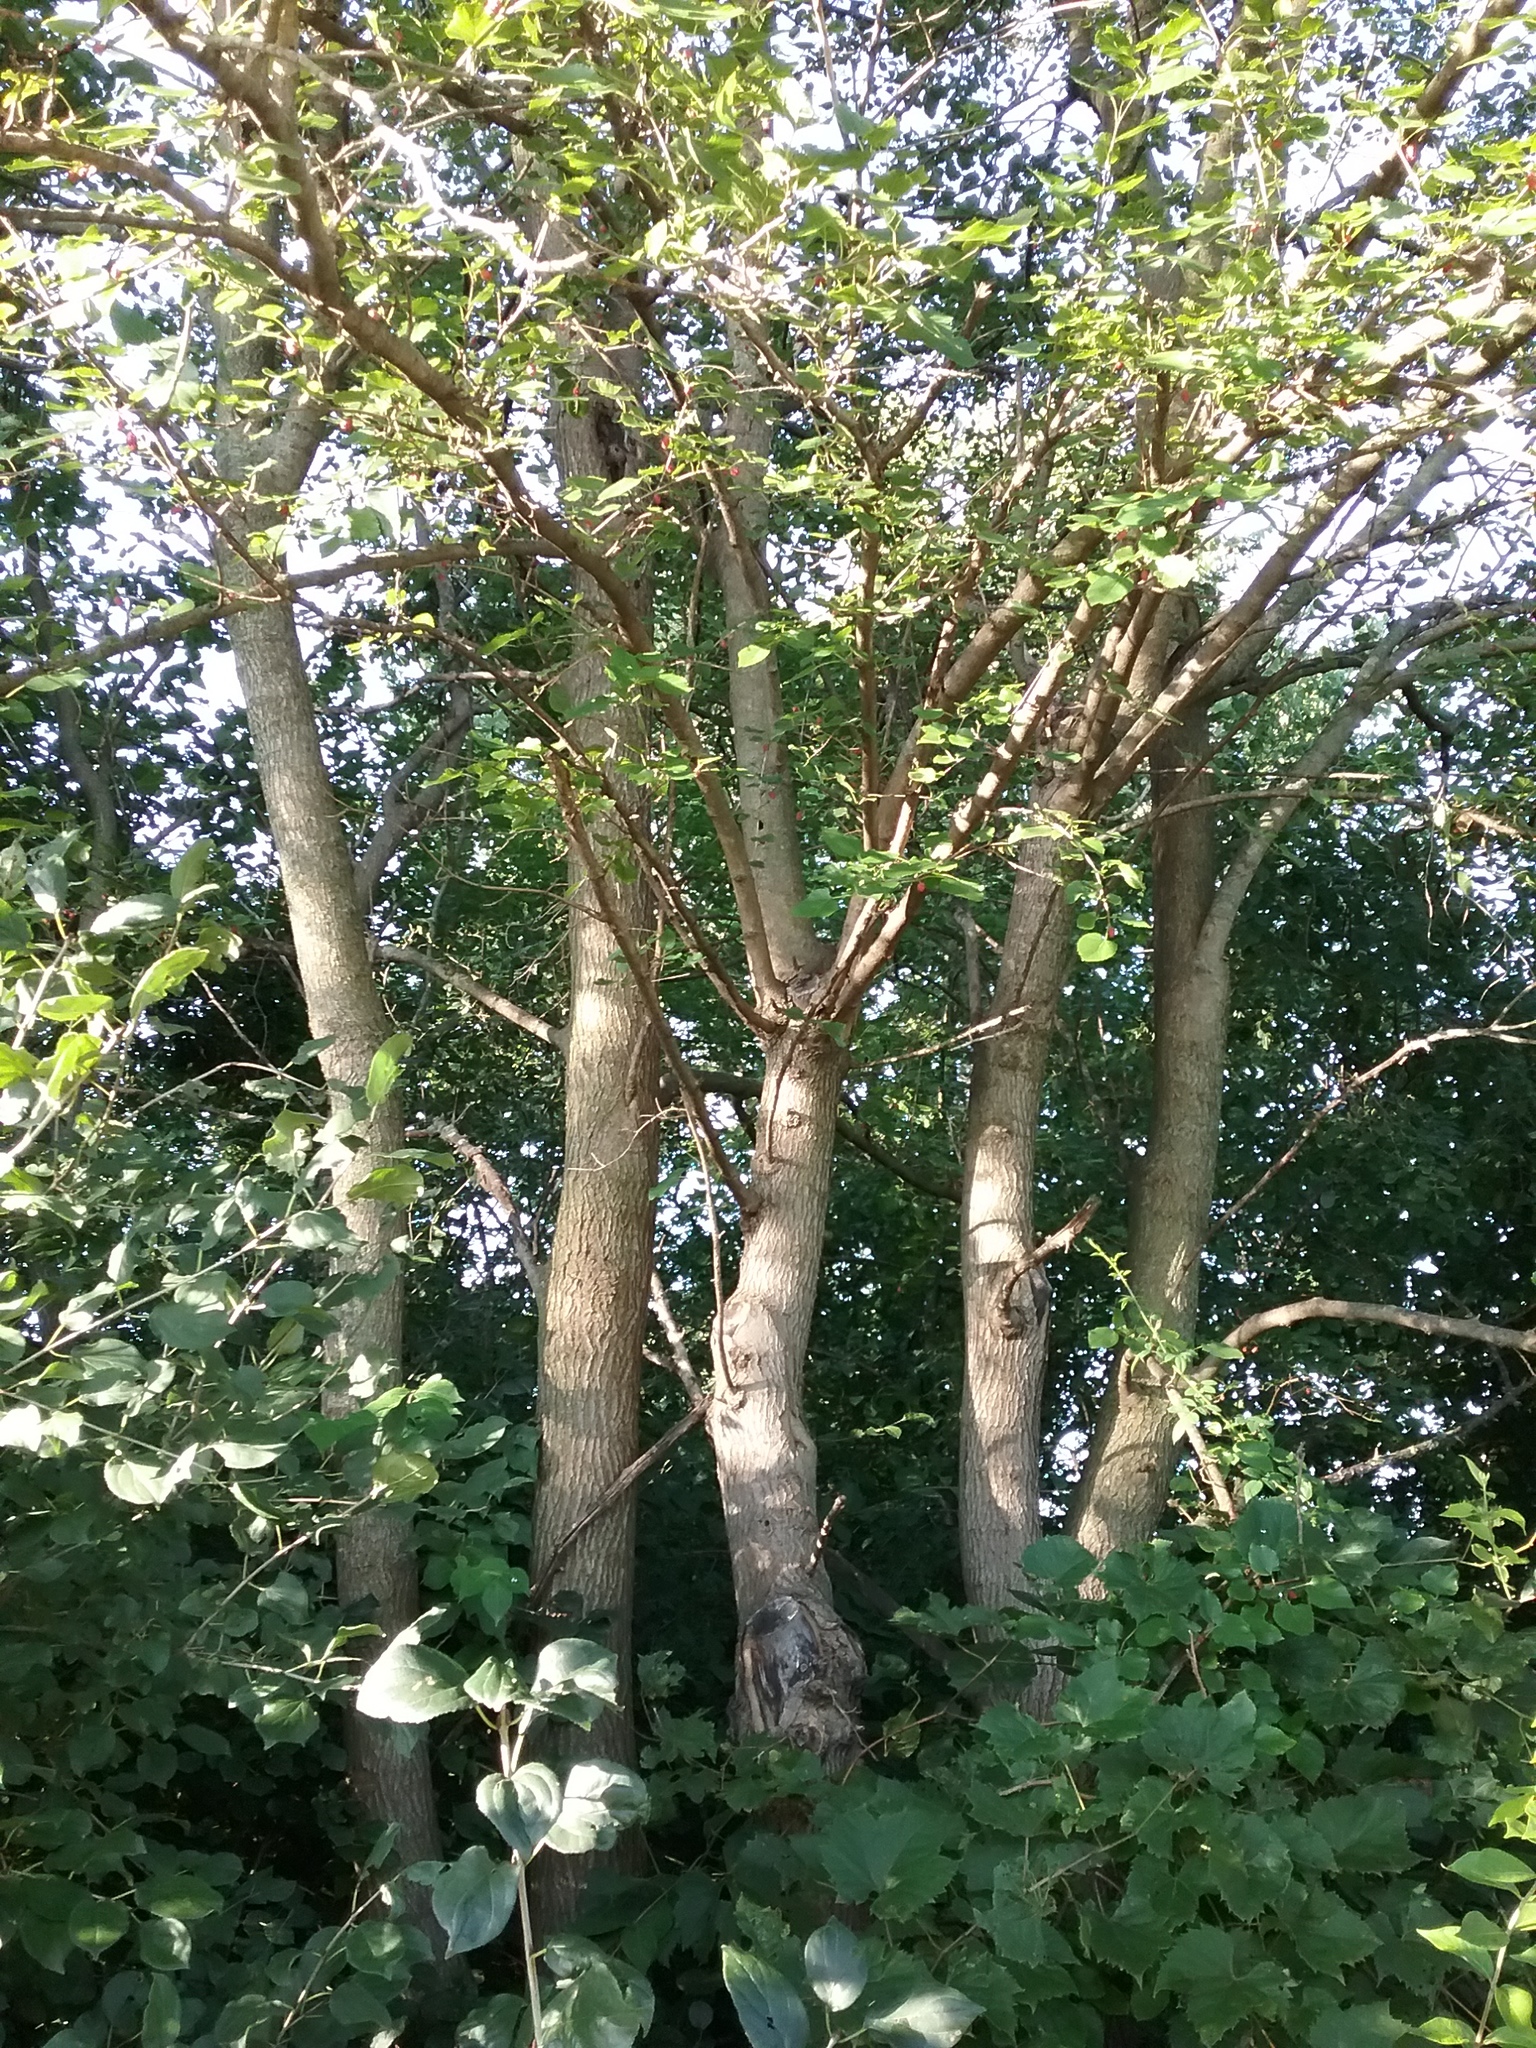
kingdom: Plantae
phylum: Tracheophyta
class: Magnoliopsida
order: Rosales
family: Moraceae
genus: Morus
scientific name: Morus alba
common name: White mulberry
